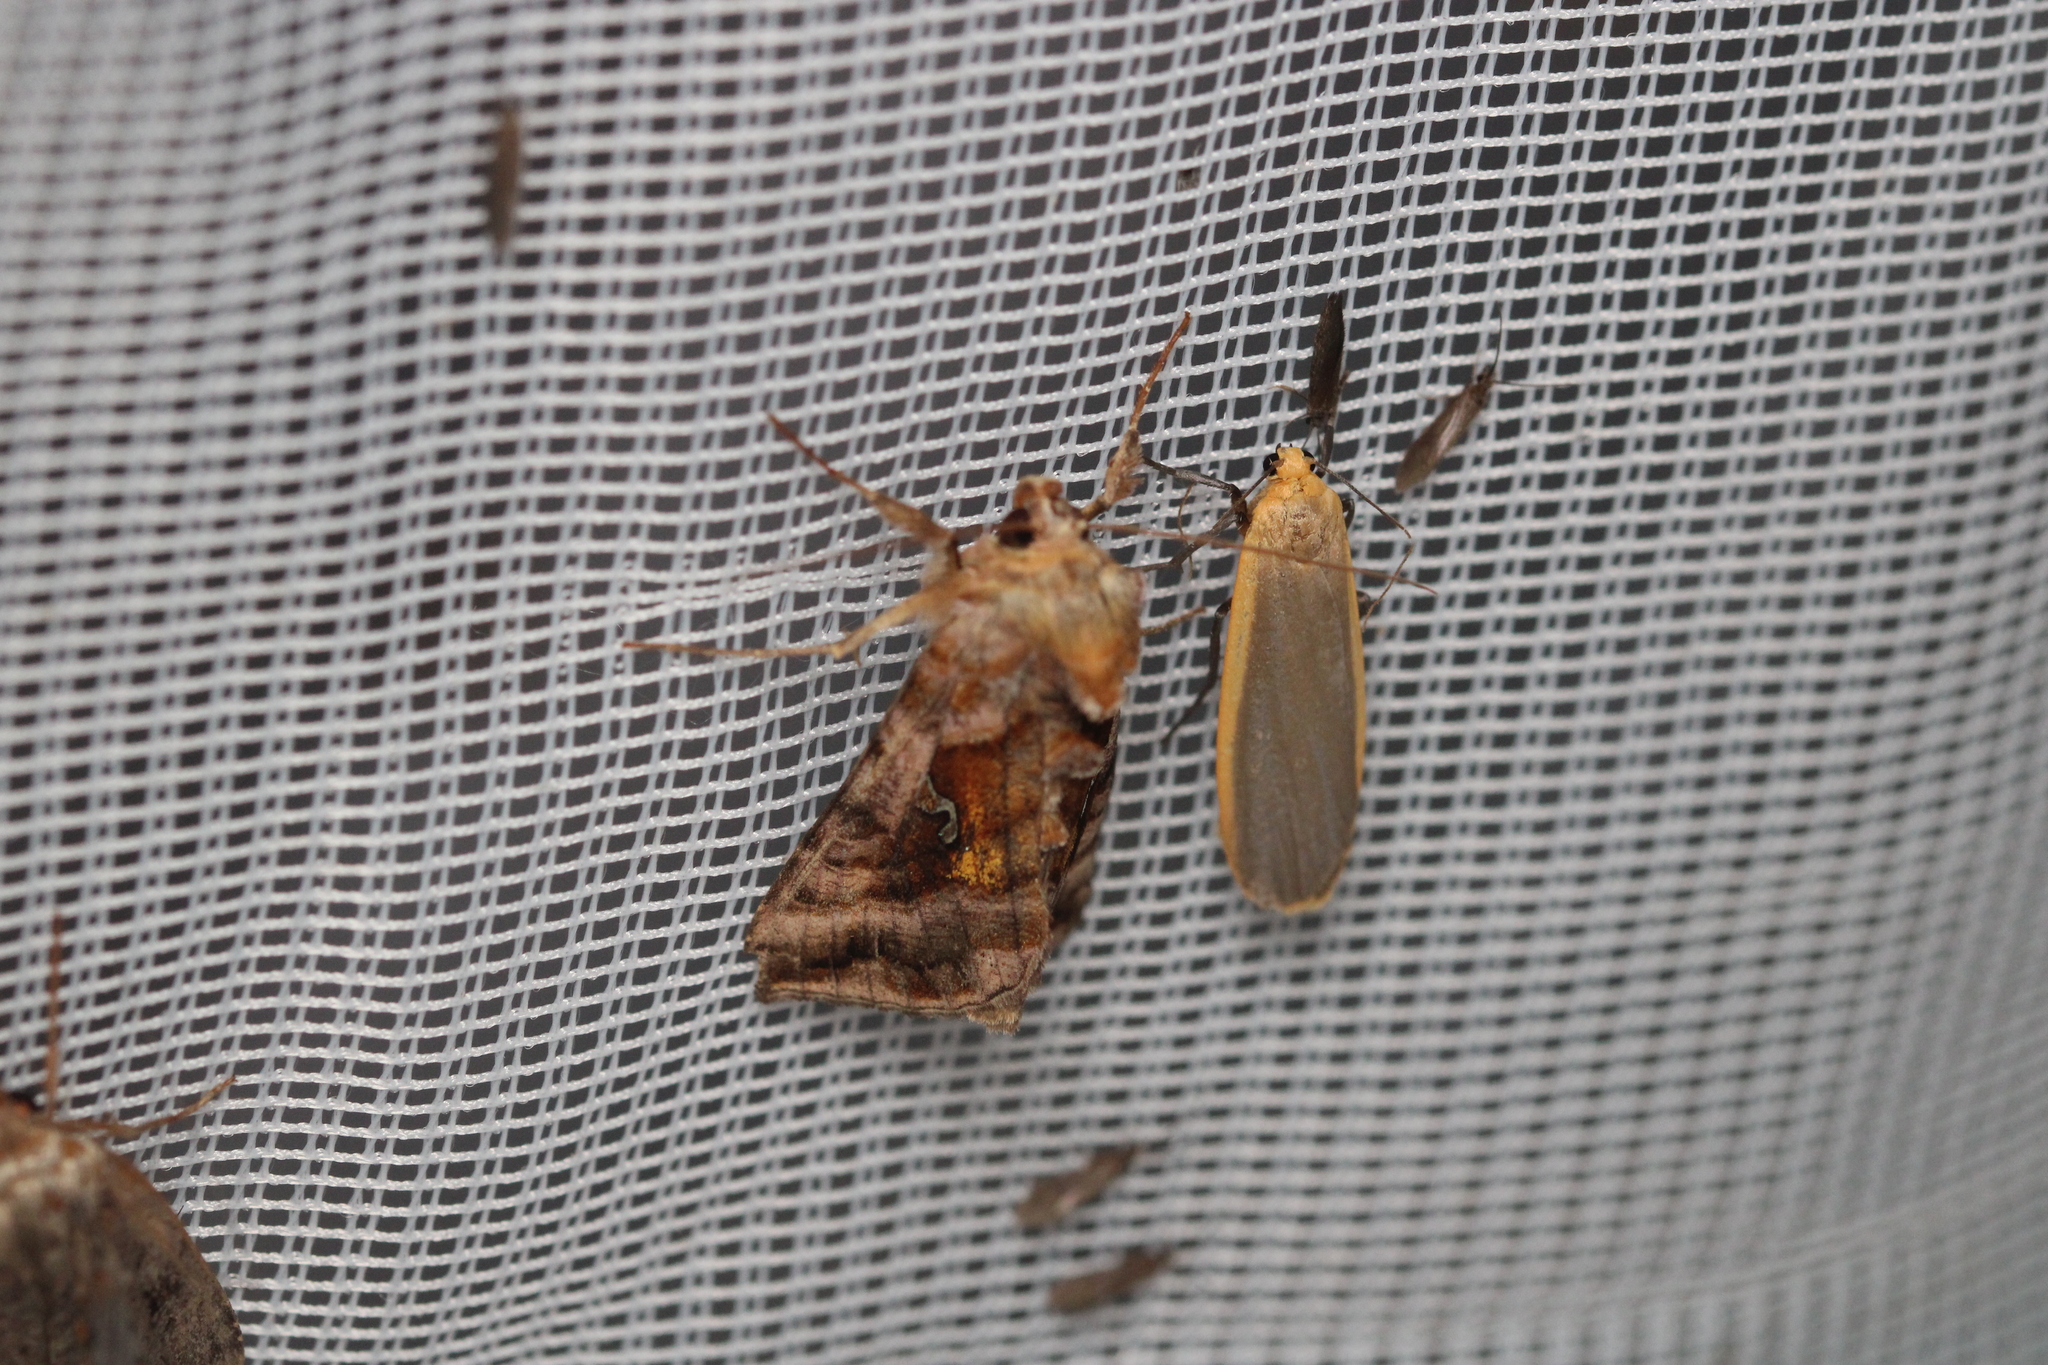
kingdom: Animalia
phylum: Arthropoda
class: Insecta
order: Lepidoptera
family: Noctuidae
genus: Autographa
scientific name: Autographa jota
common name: Plain golden y
